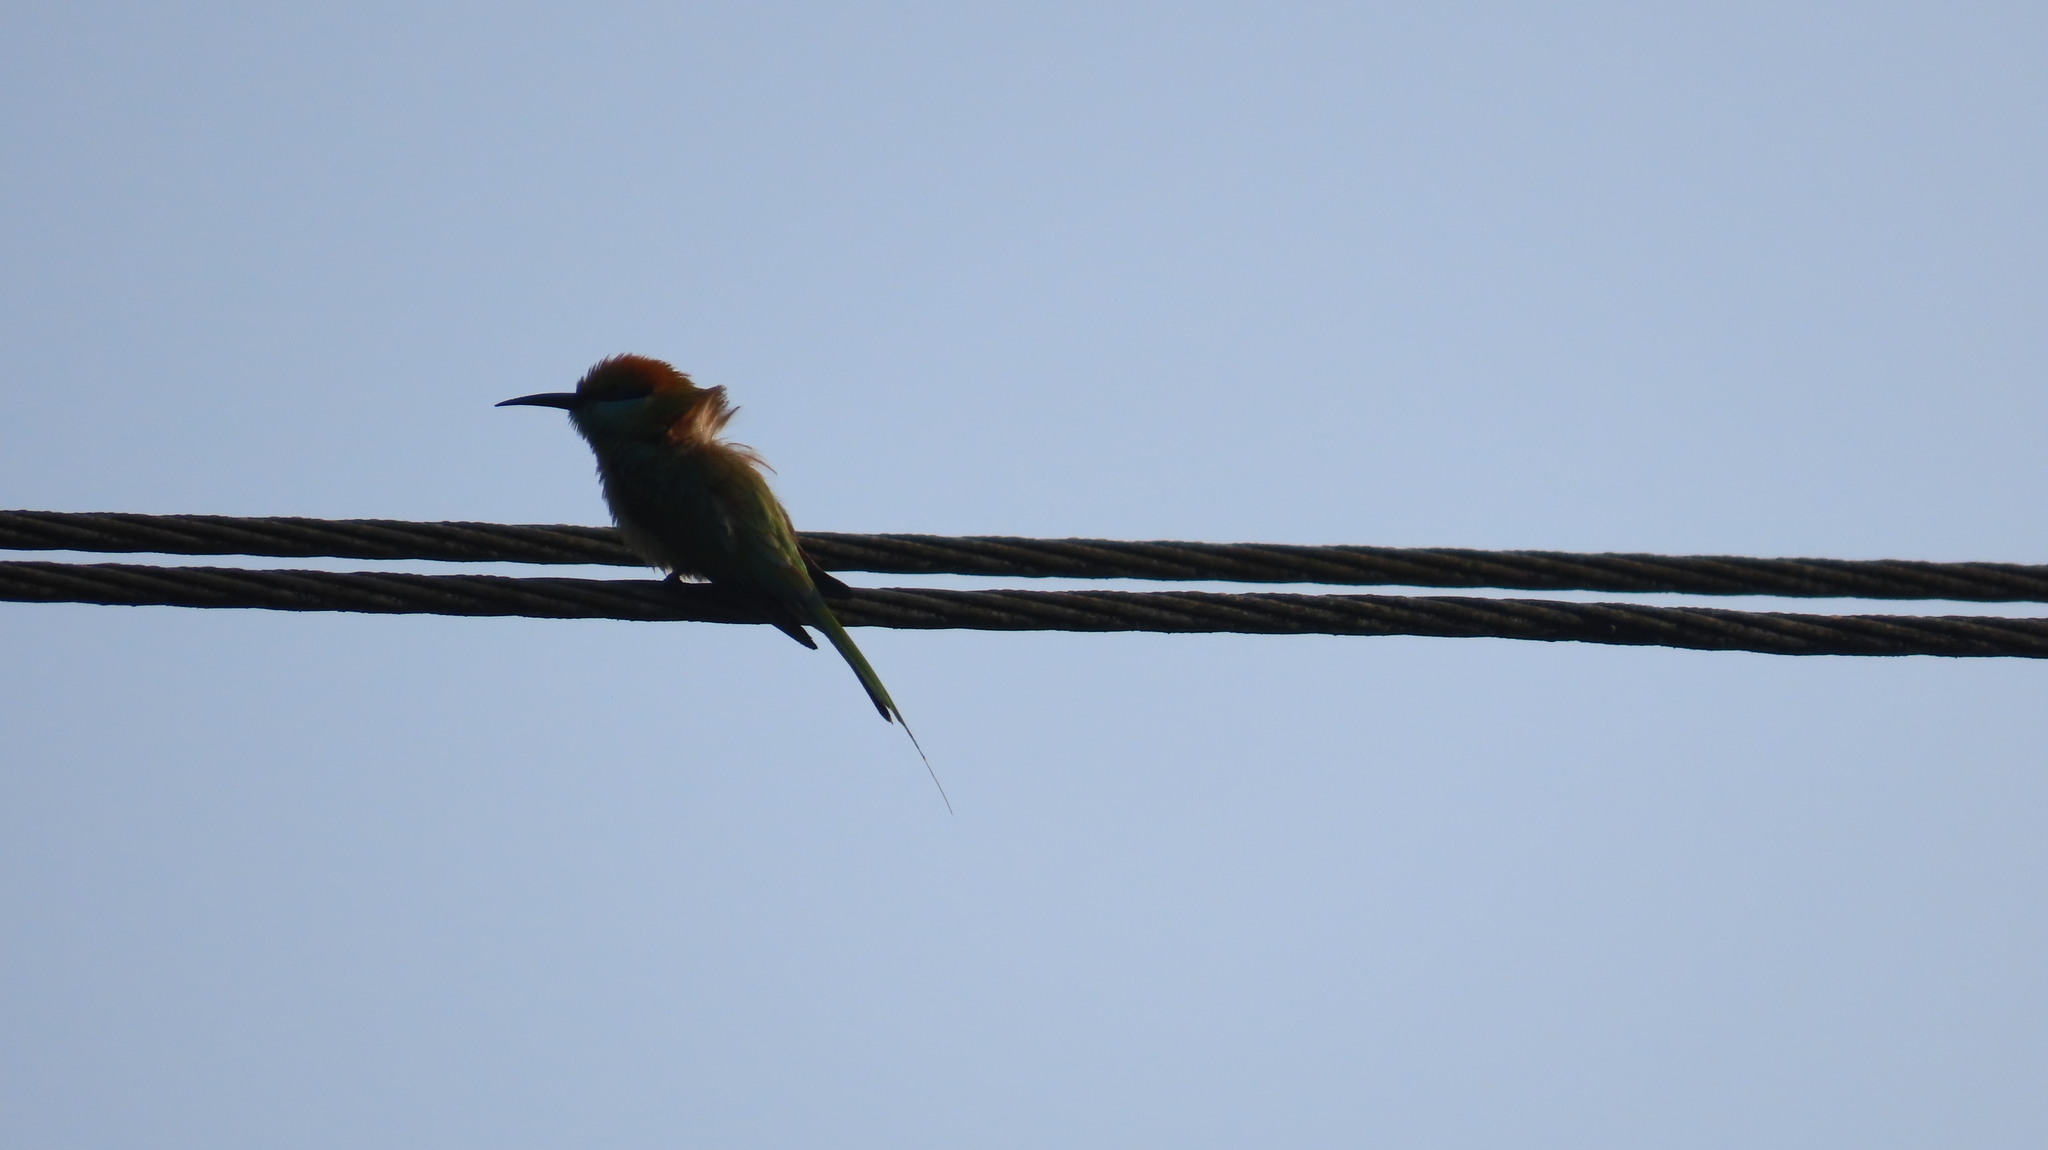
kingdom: Animalia
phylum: Chordata
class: Aves
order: Coraciiformes
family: Meropidae
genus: Merops
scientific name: Merops orientalis
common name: Green bee-eater
